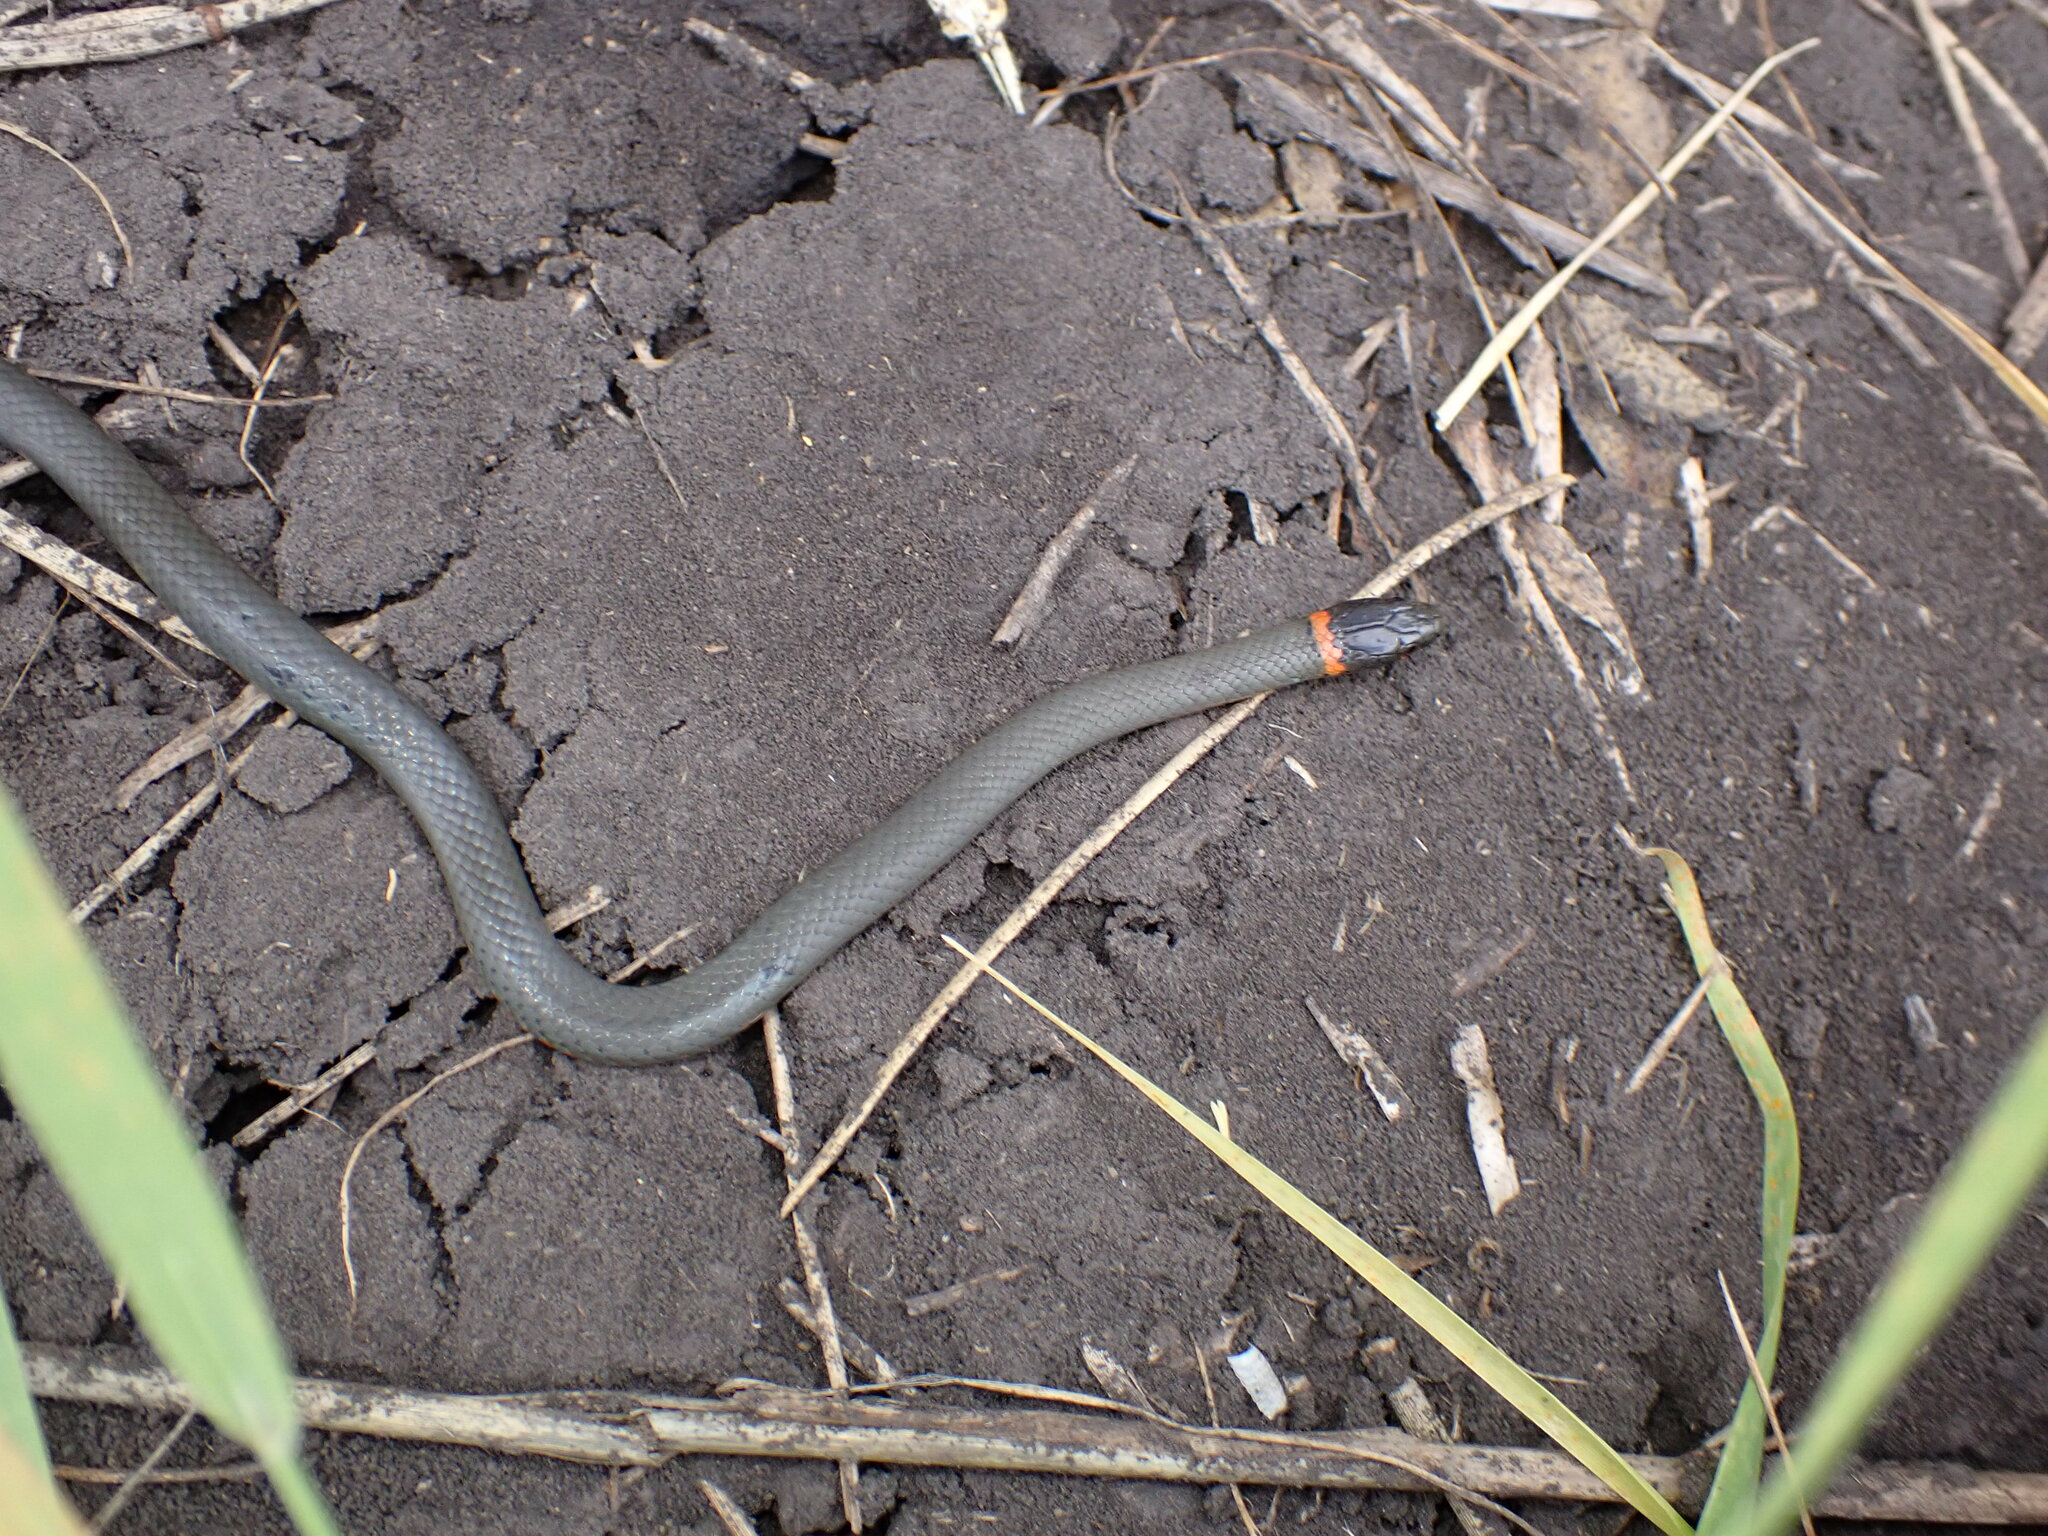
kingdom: Animalia
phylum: Chordata
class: Squamata
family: Colubridae
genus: Diadophis
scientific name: Diadophis punctatus
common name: Ringneck snake
